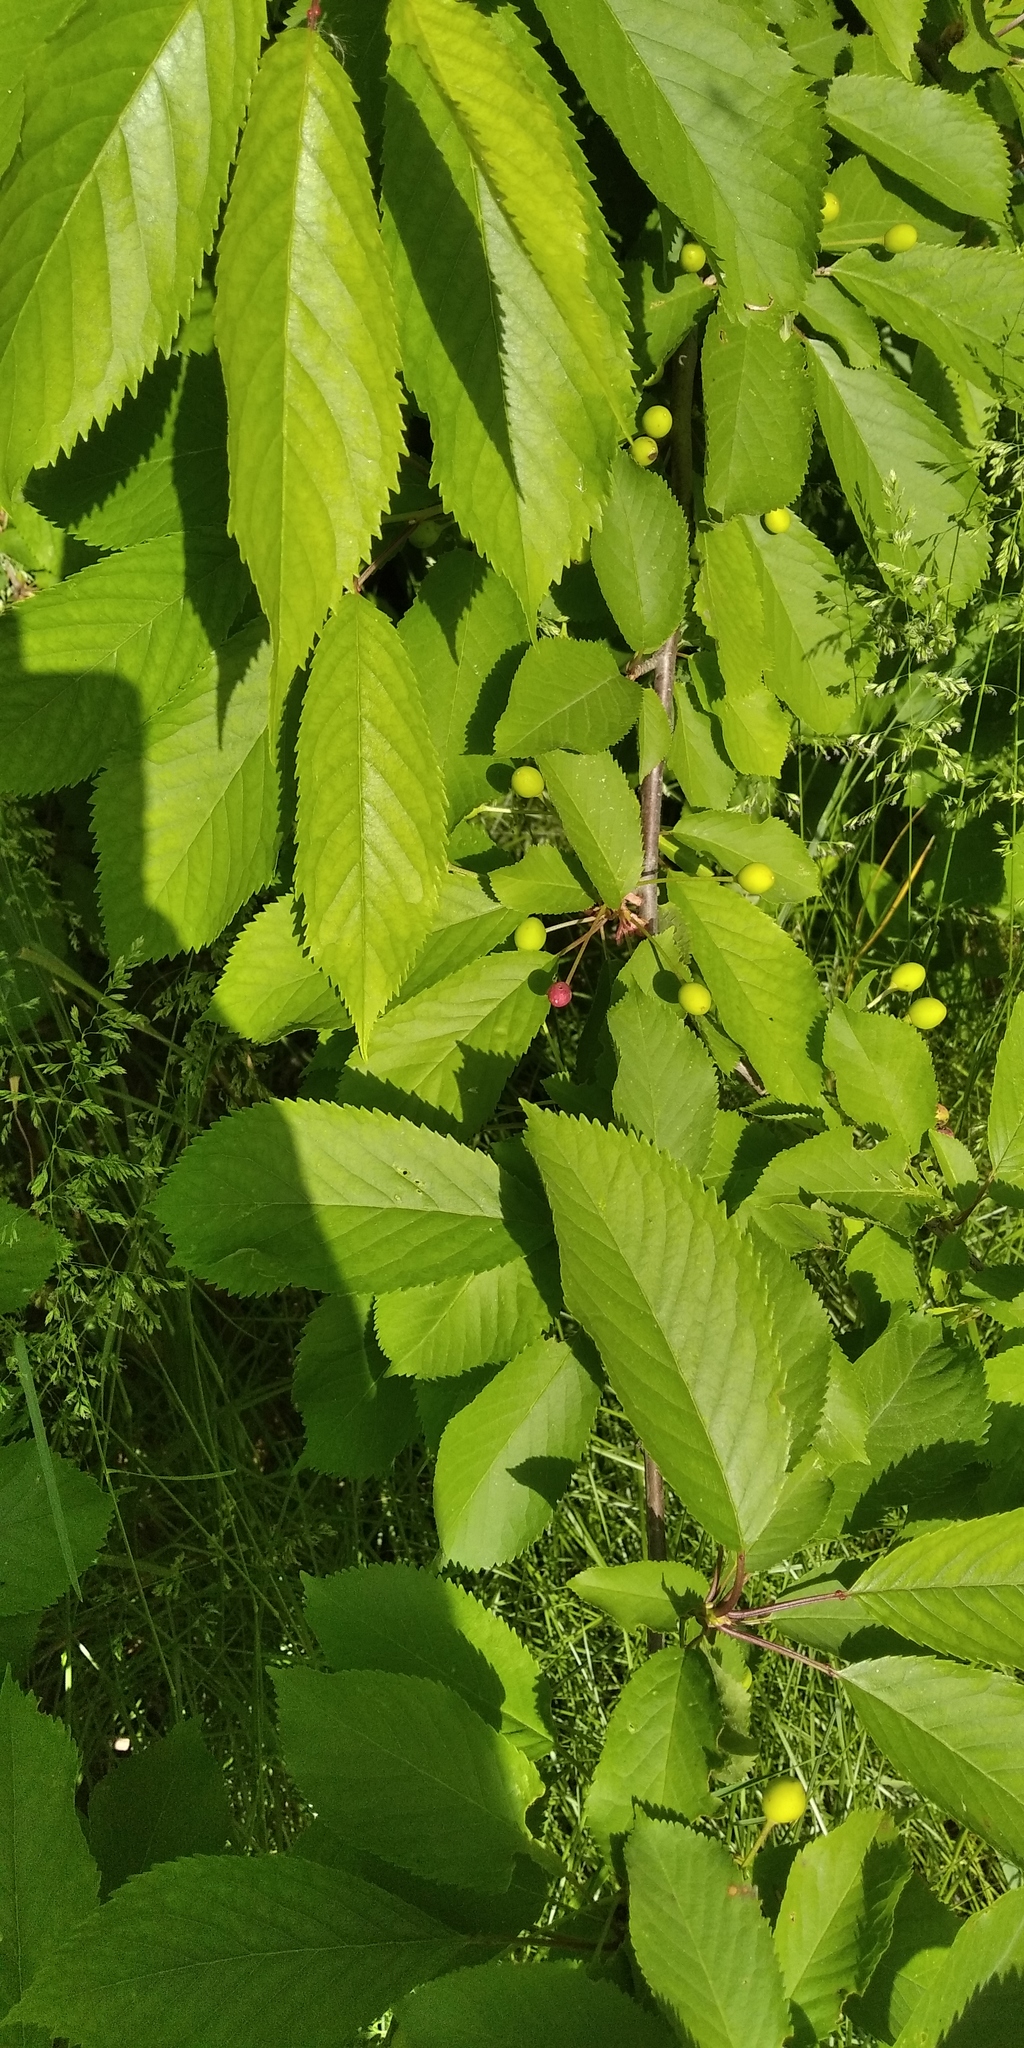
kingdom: Plantae
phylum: Tracheophyta
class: Magnoliopsida
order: Rosales
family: Rosaceae
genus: Prunus
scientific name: Prunus avium
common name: Sweet cherry
